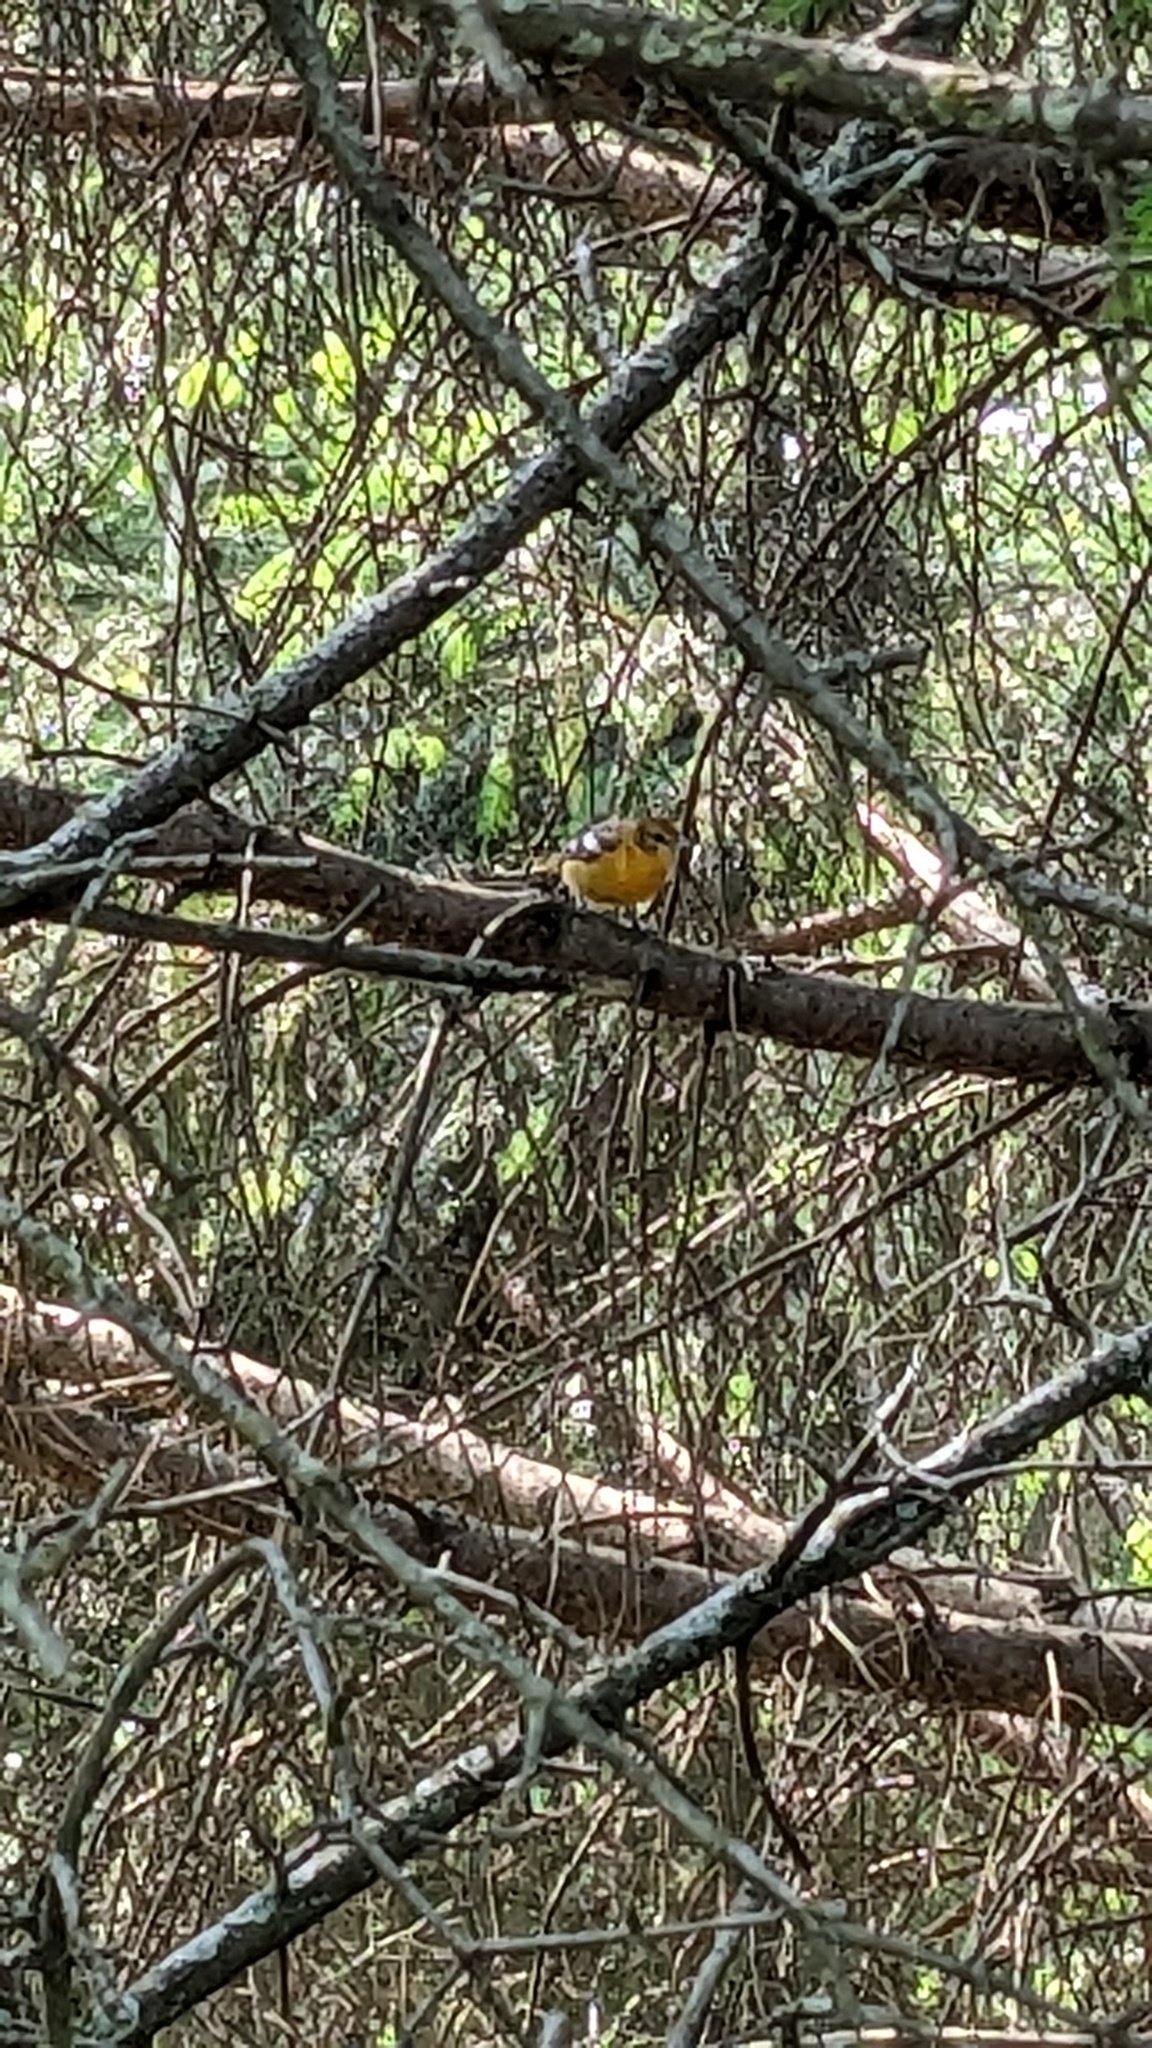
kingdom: Animalia
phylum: Chordata
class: Aves
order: Passeriformes
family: Icteridae
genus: Icterus
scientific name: Icterus galbula
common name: Baltimore oriole
